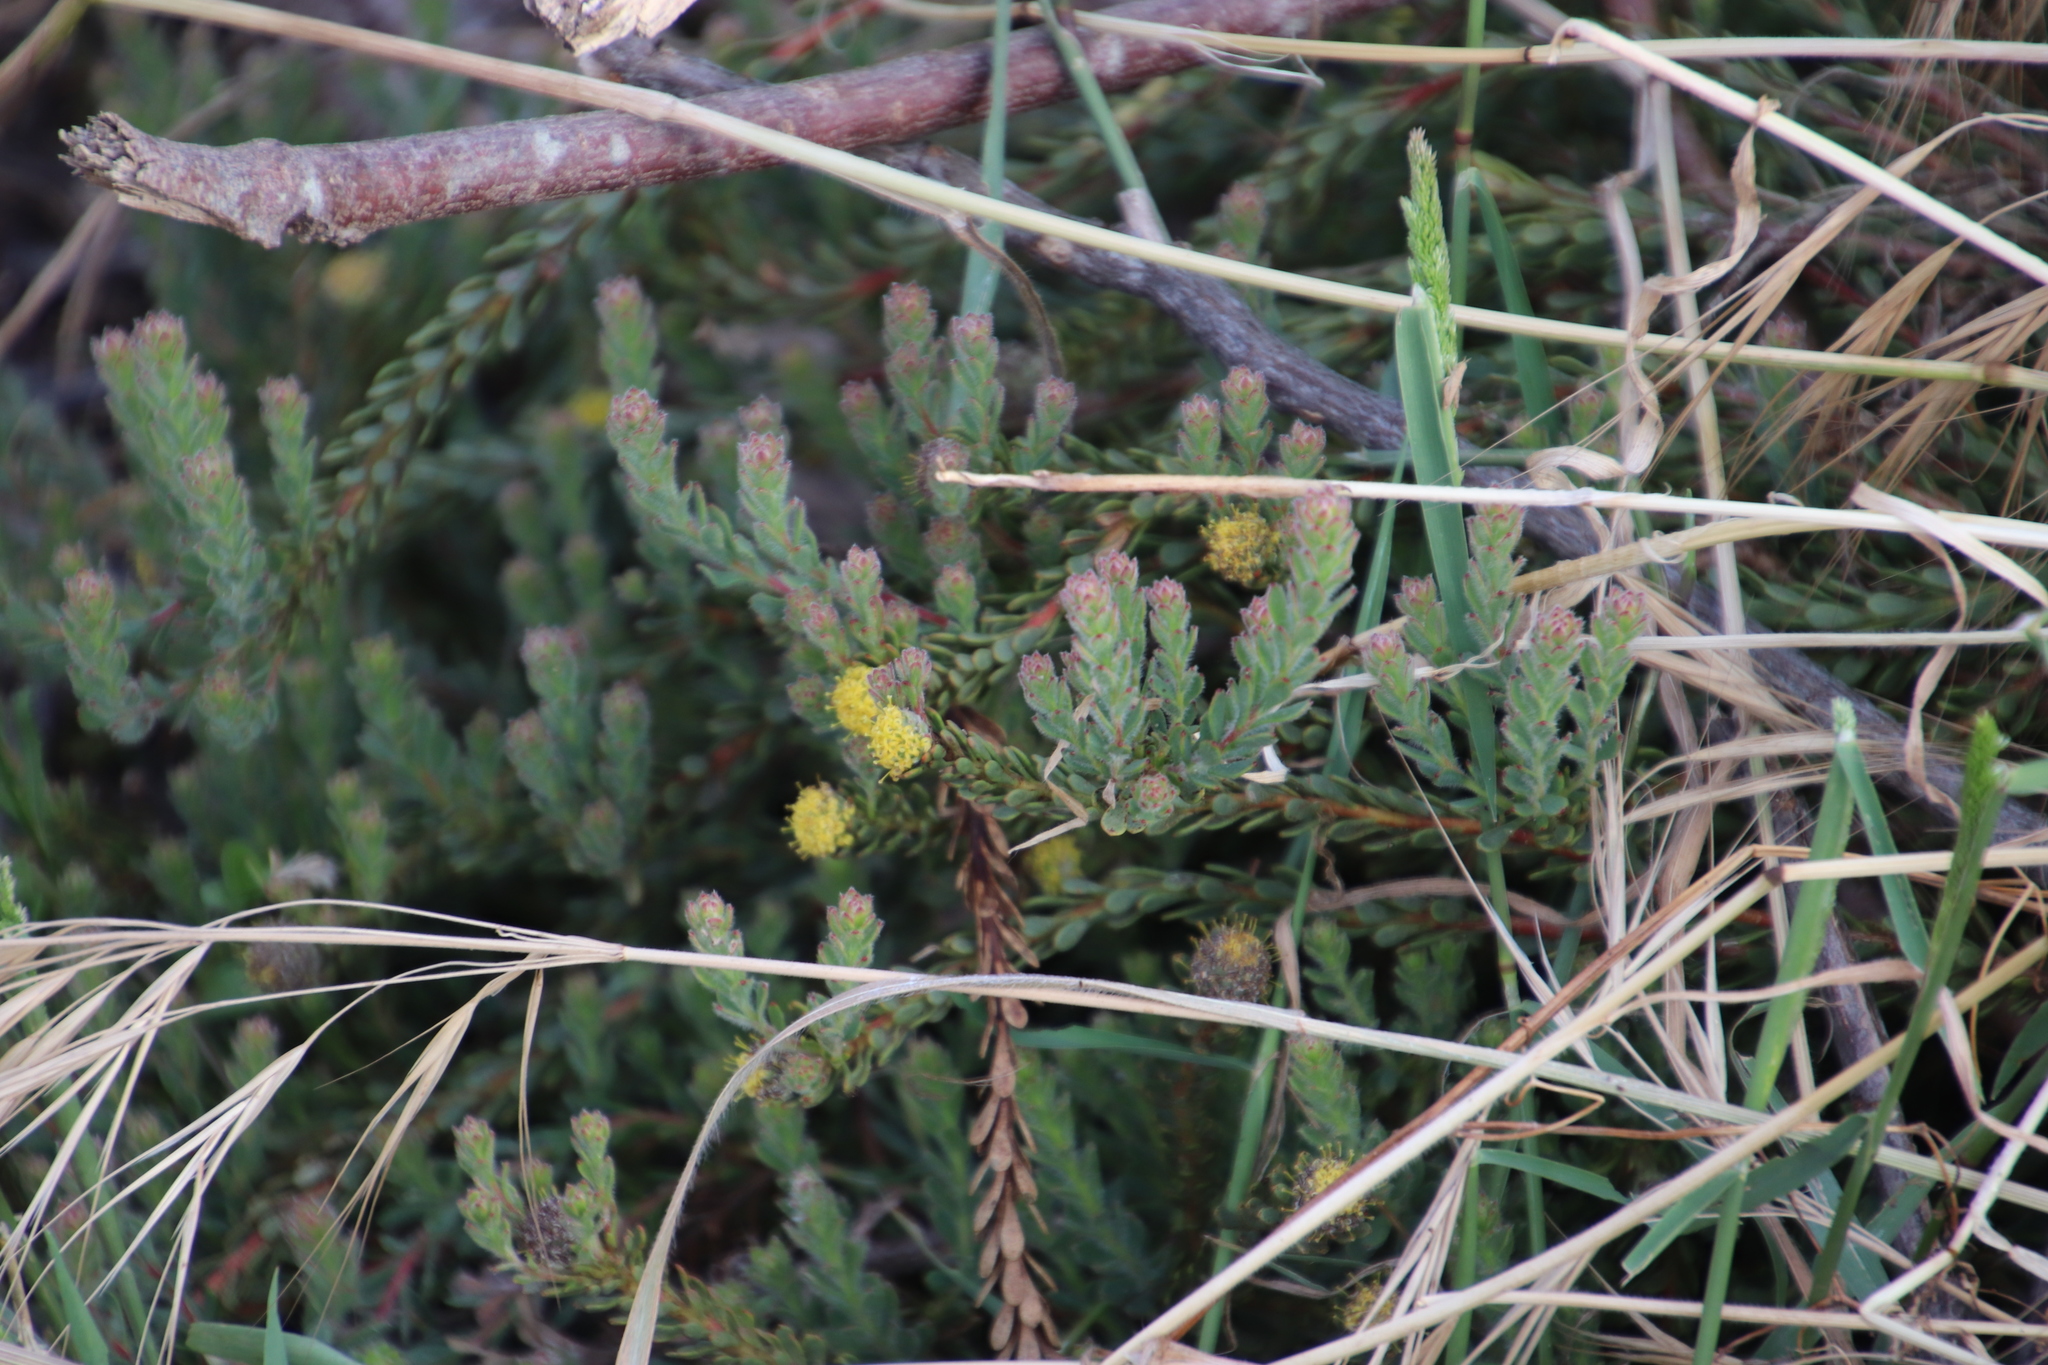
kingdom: Plantae
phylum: Tracheophyta
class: Magnoliopsida
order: Proteales
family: Proteaceae
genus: Leucadendron
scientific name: Leucadendron levisanus
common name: Cape flats conebush
